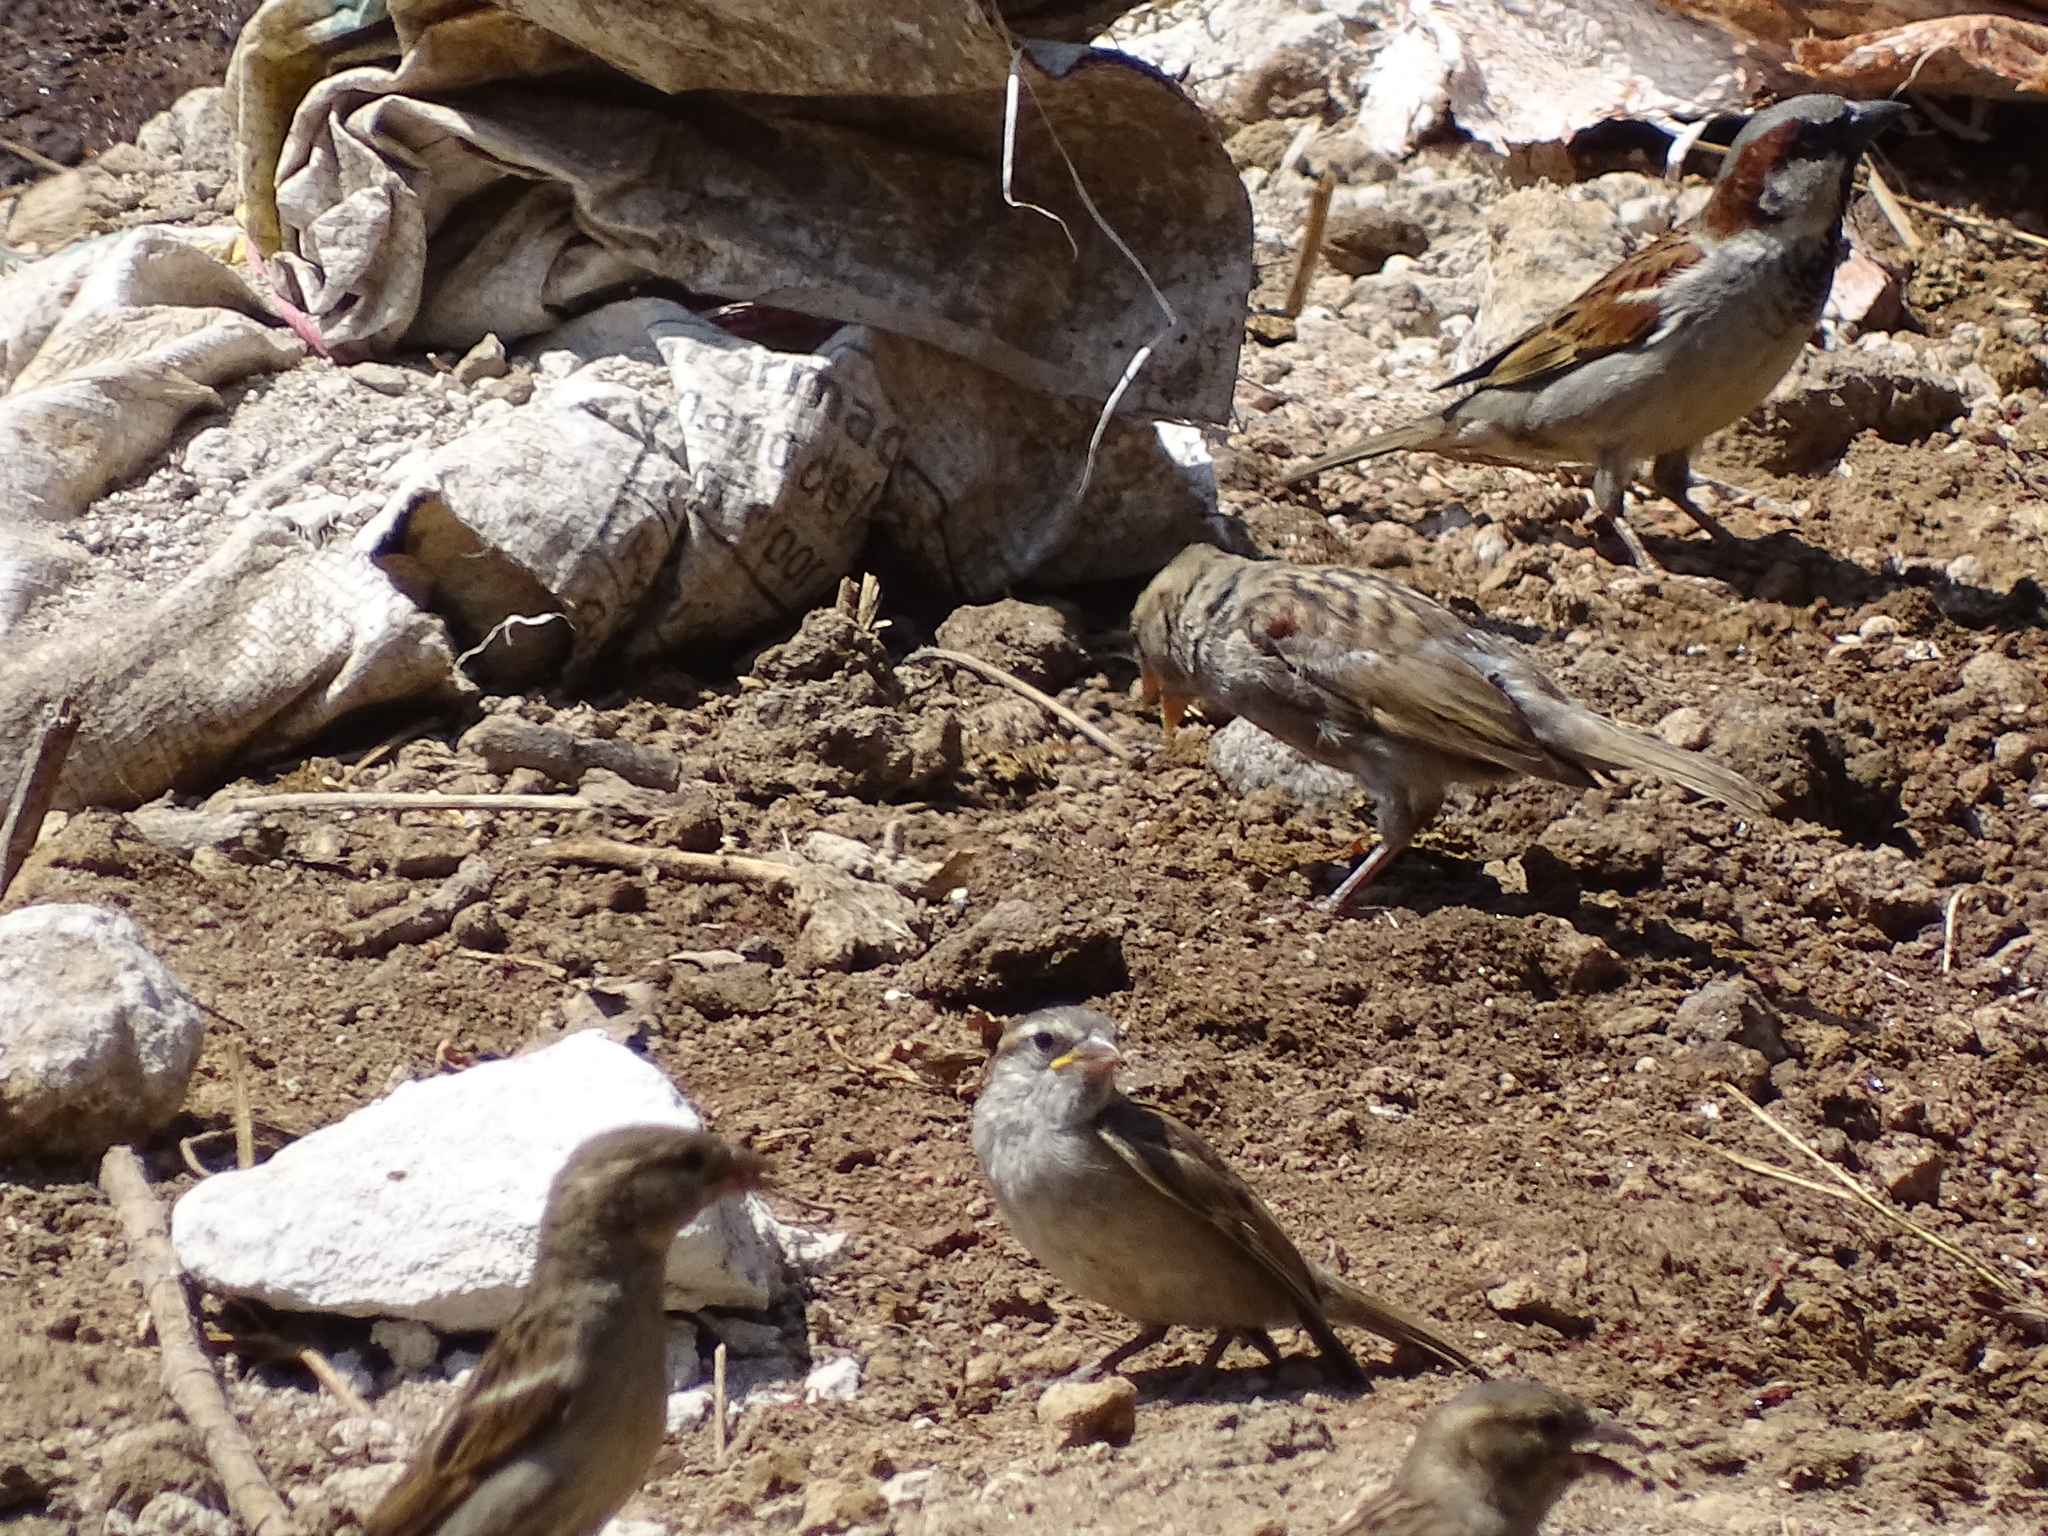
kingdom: Animalia
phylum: Chordata
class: Aves
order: Passeriformes
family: Passeridae
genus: Passer
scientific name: Passer domesticus
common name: House sparrow
